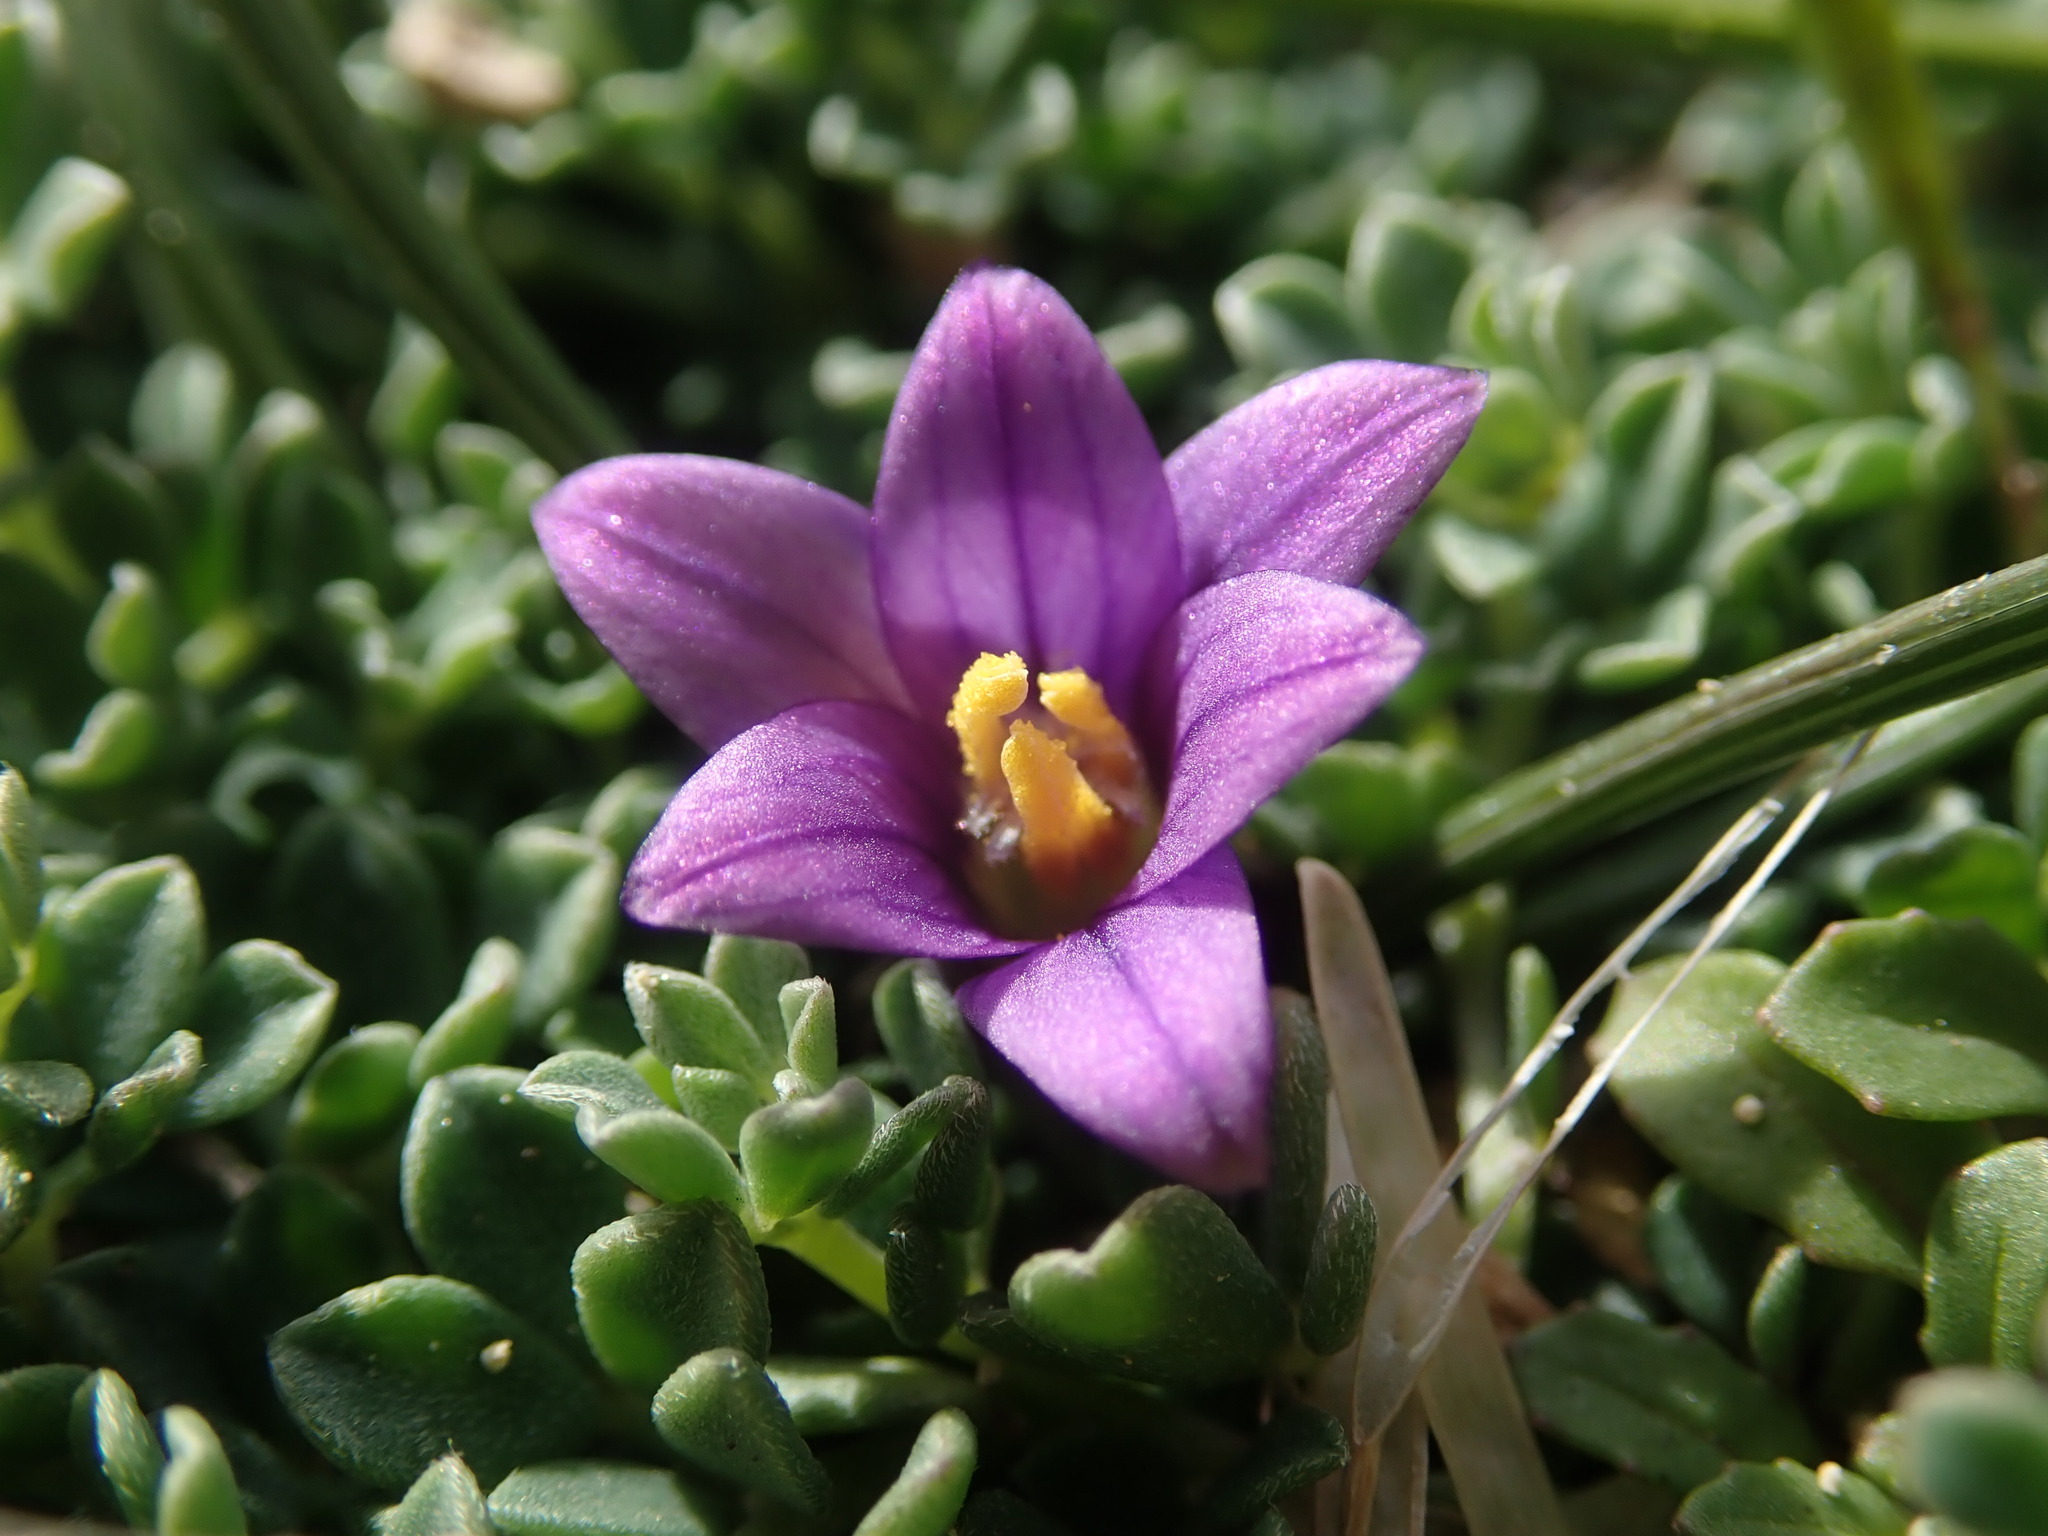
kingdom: Plantae
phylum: Tracheophyta
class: Liliopsida
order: Asparagales
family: Iridaceae
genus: Romulea
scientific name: Romulea variicolor
